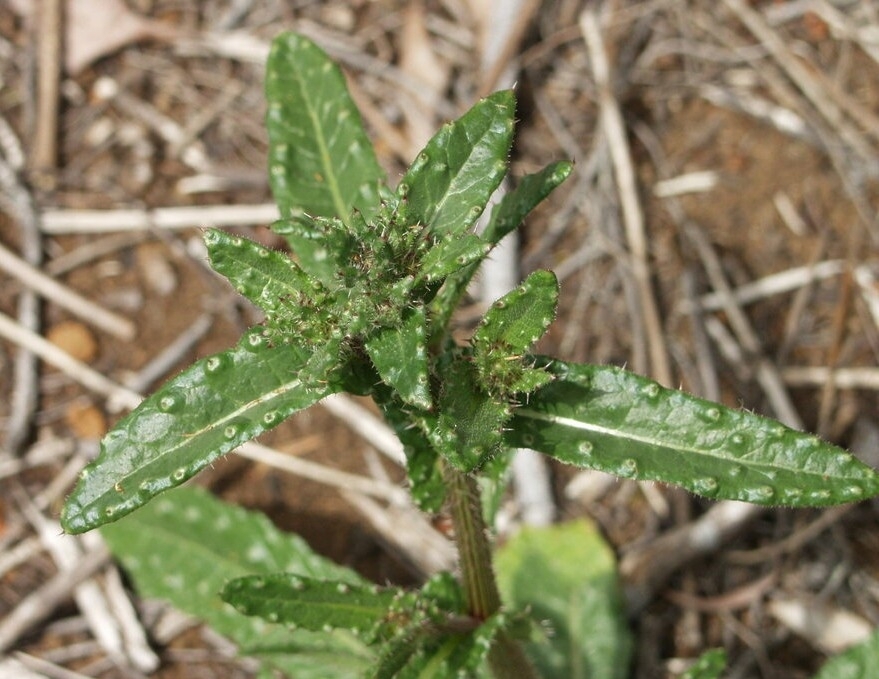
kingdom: Plantae
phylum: Tracheophyta
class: Magnoliopsida
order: Asterales
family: Asteraceae
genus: Helminthotheca
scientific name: Helminthotheca echioides
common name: Ox-tongue
